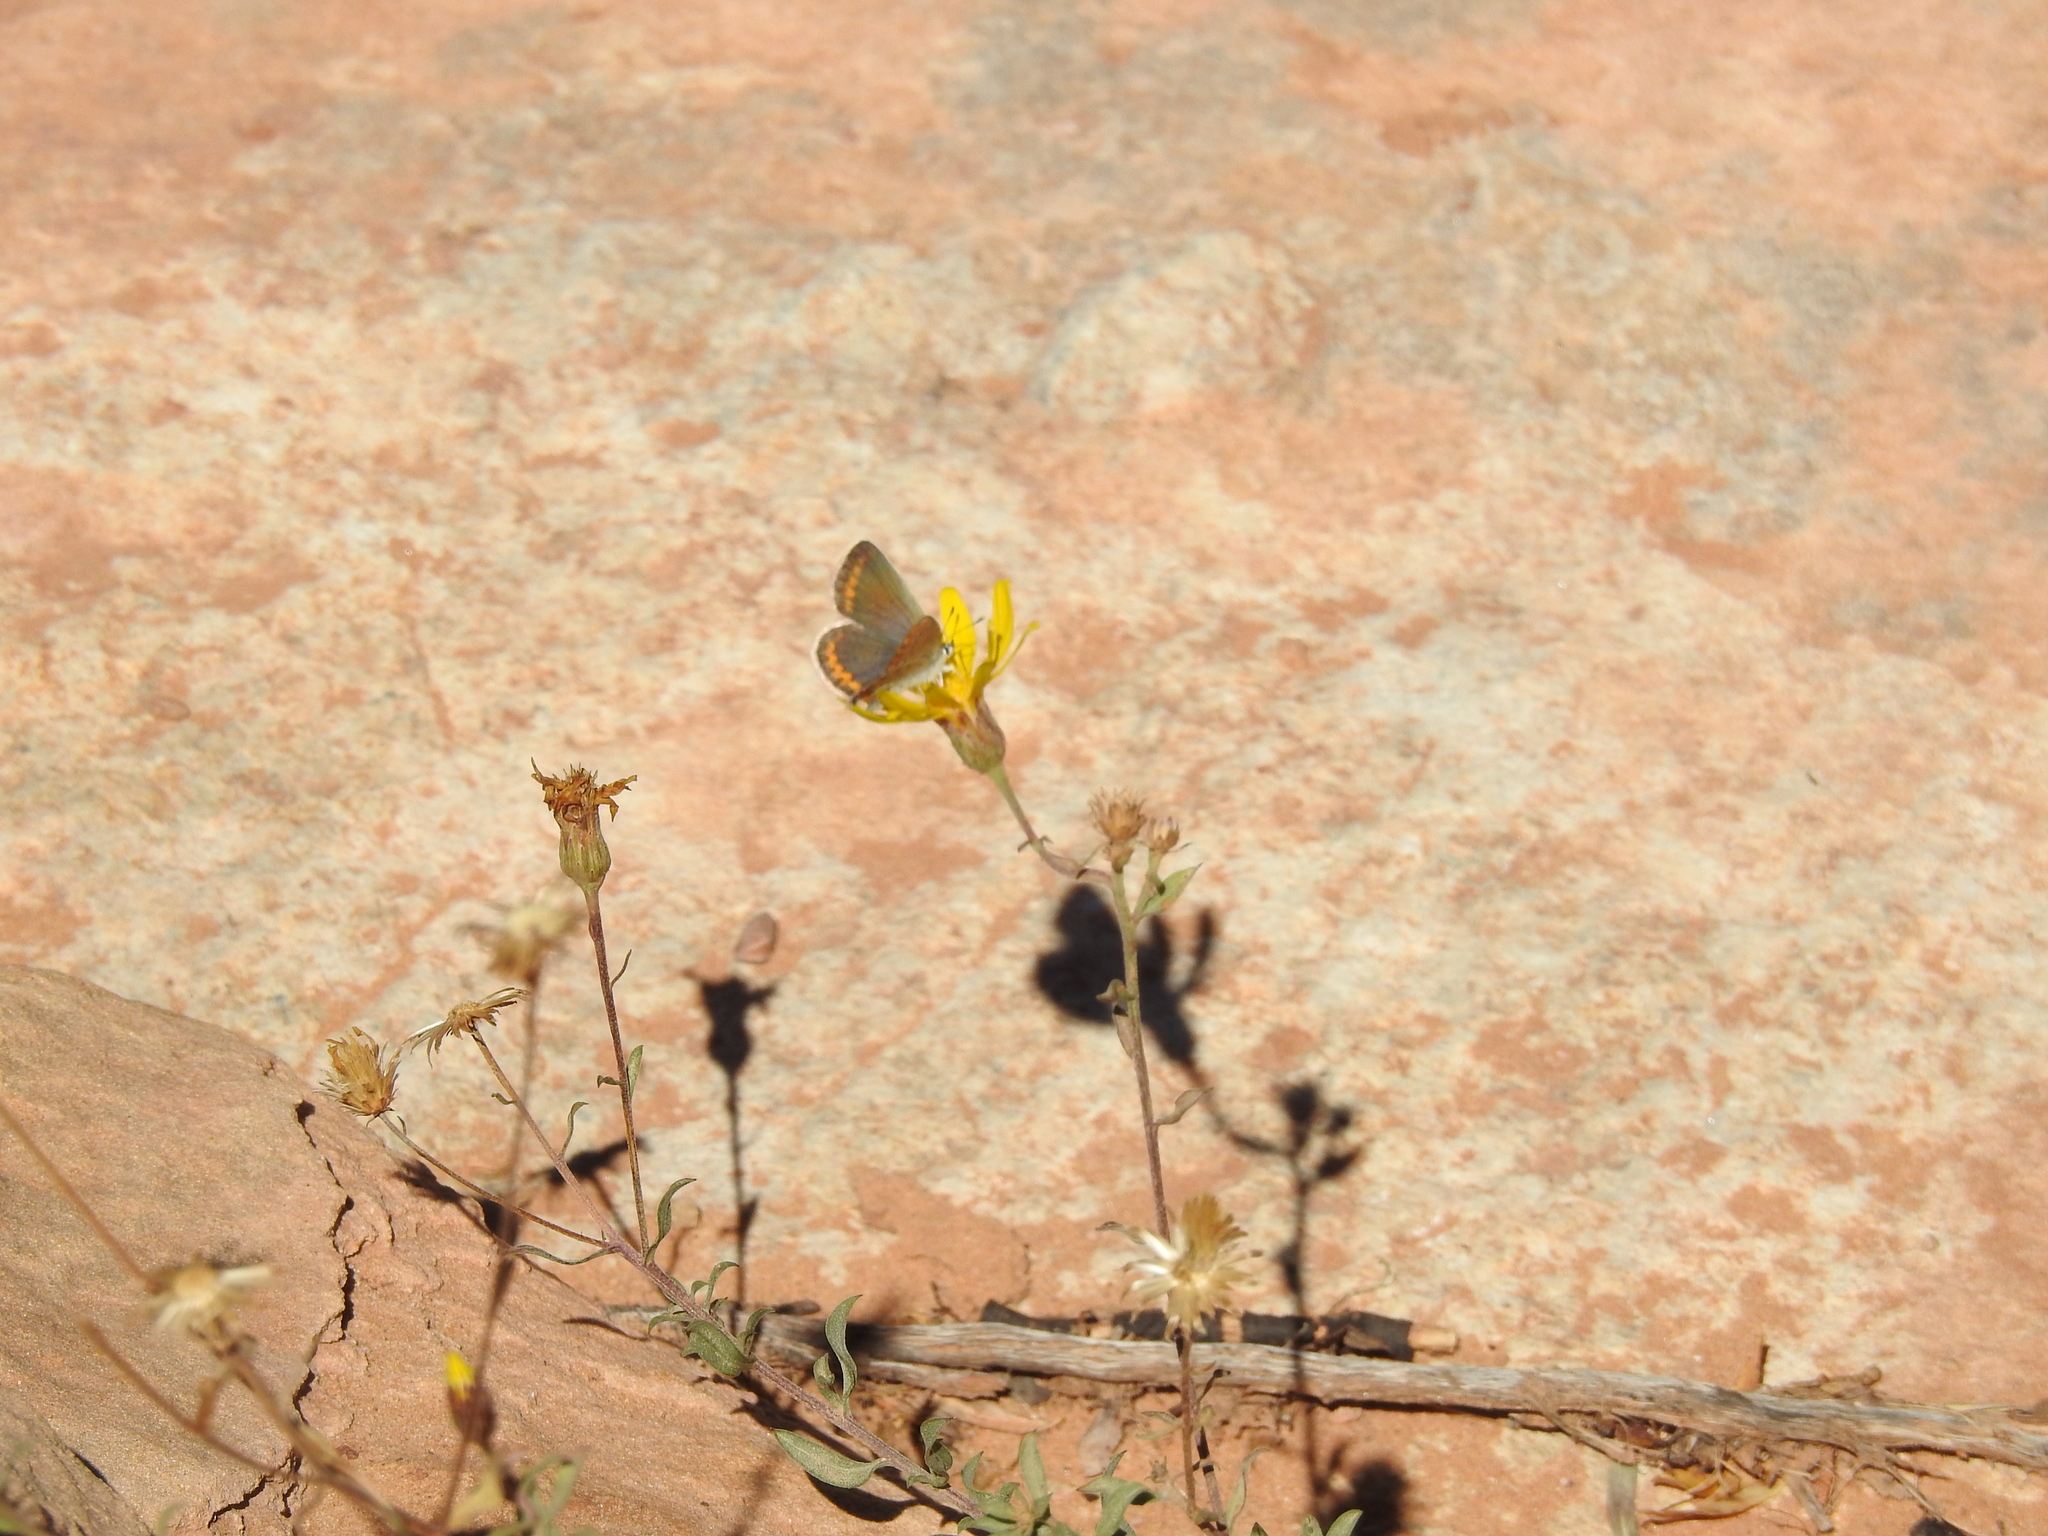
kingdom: Animalia
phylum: Arthropoda
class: Insecta
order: Lepidoptera
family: Lycaenidae
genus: Lycaeides
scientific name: Lycaeides melissa
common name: Melissa blue
